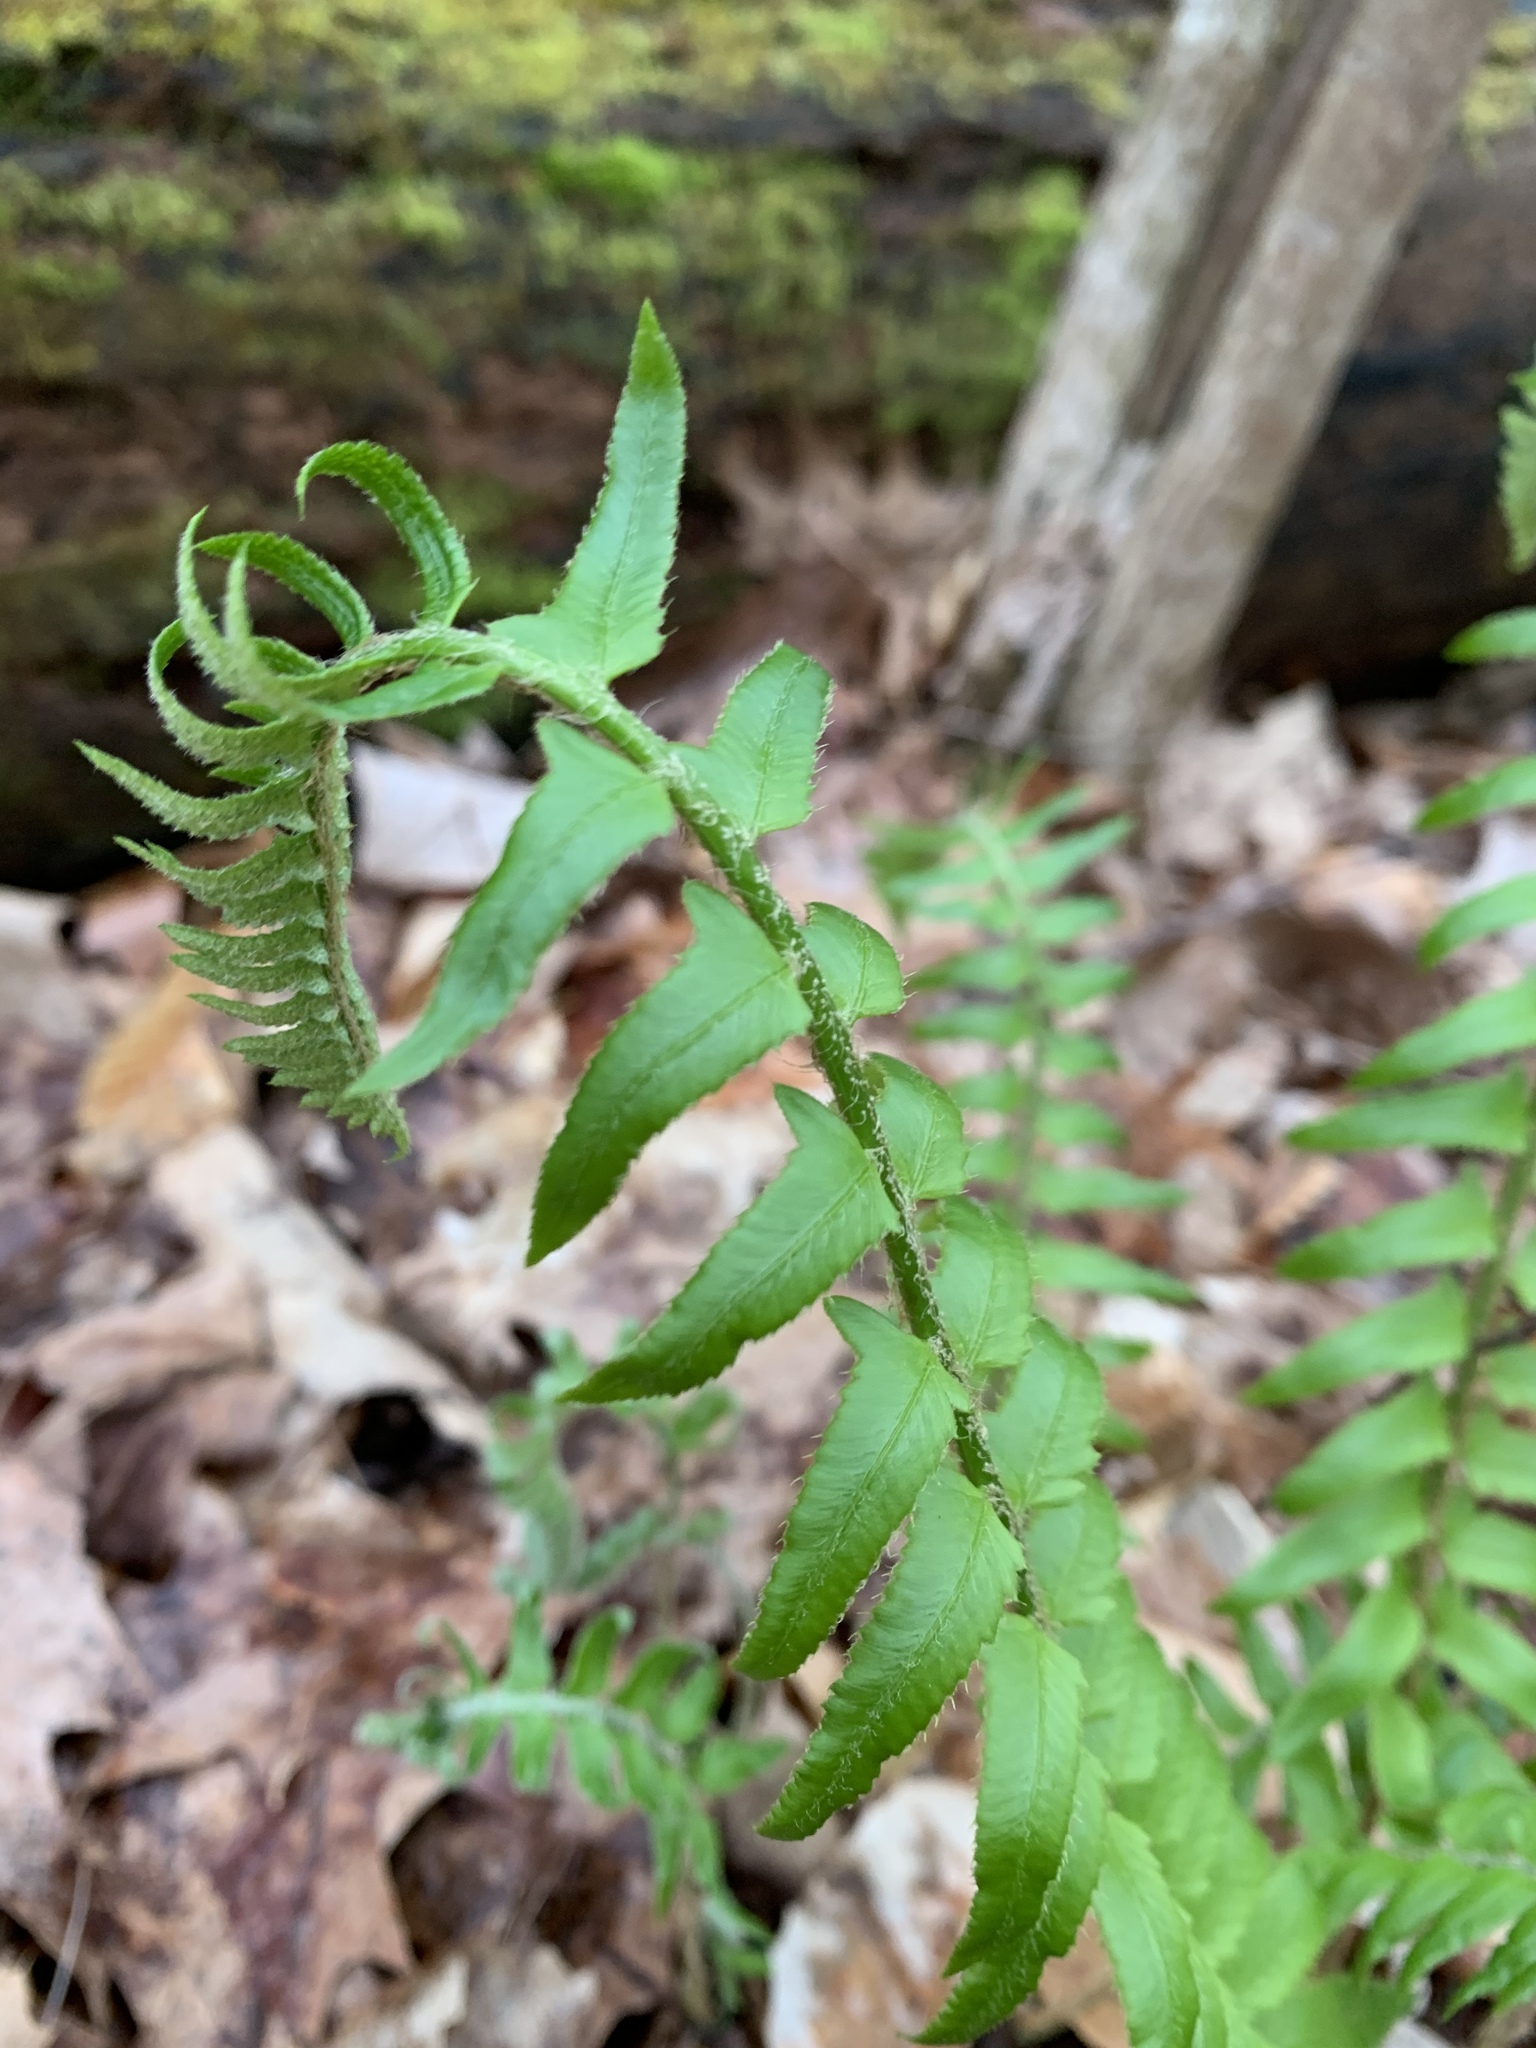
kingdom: Plantae
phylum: Tracheophyta
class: Polypodiopsida
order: Polypodiales
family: Dryopteridaceae
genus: Polystichum
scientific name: Polystichum acrostichoides
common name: Christmas fern
